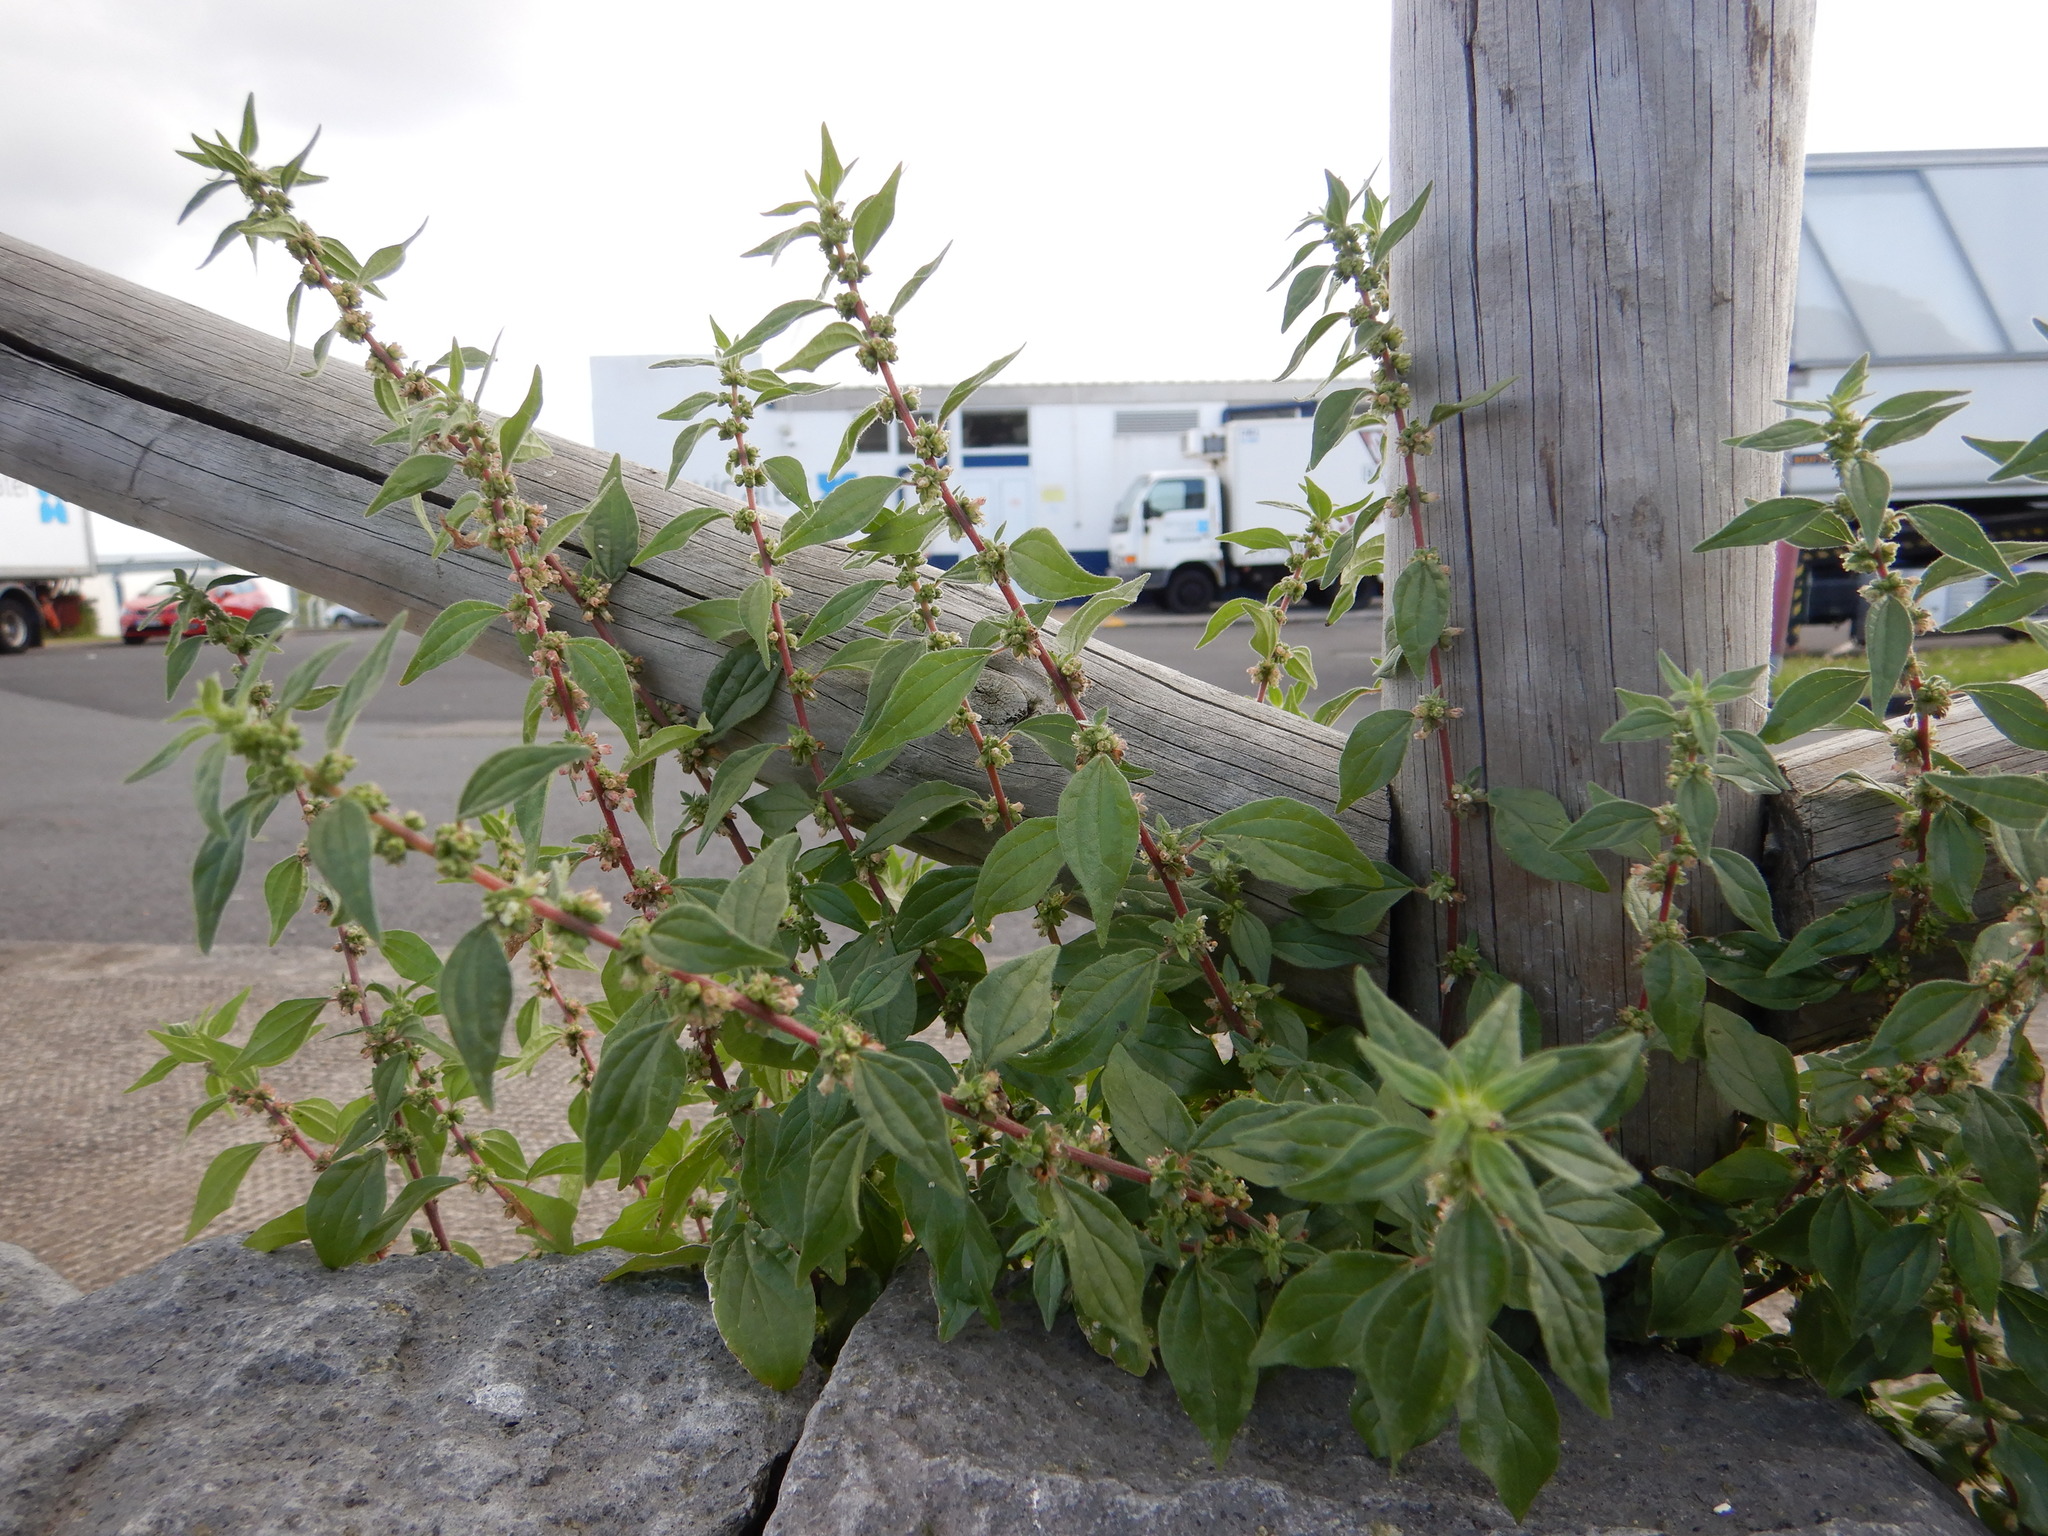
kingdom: Plantae
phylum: Tracheophyta
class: Magnoliopsida
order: Rosales
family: Urticaceae
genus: Parietaria
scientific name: Parietaria judaica
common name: Pellitory-of-the-wall
